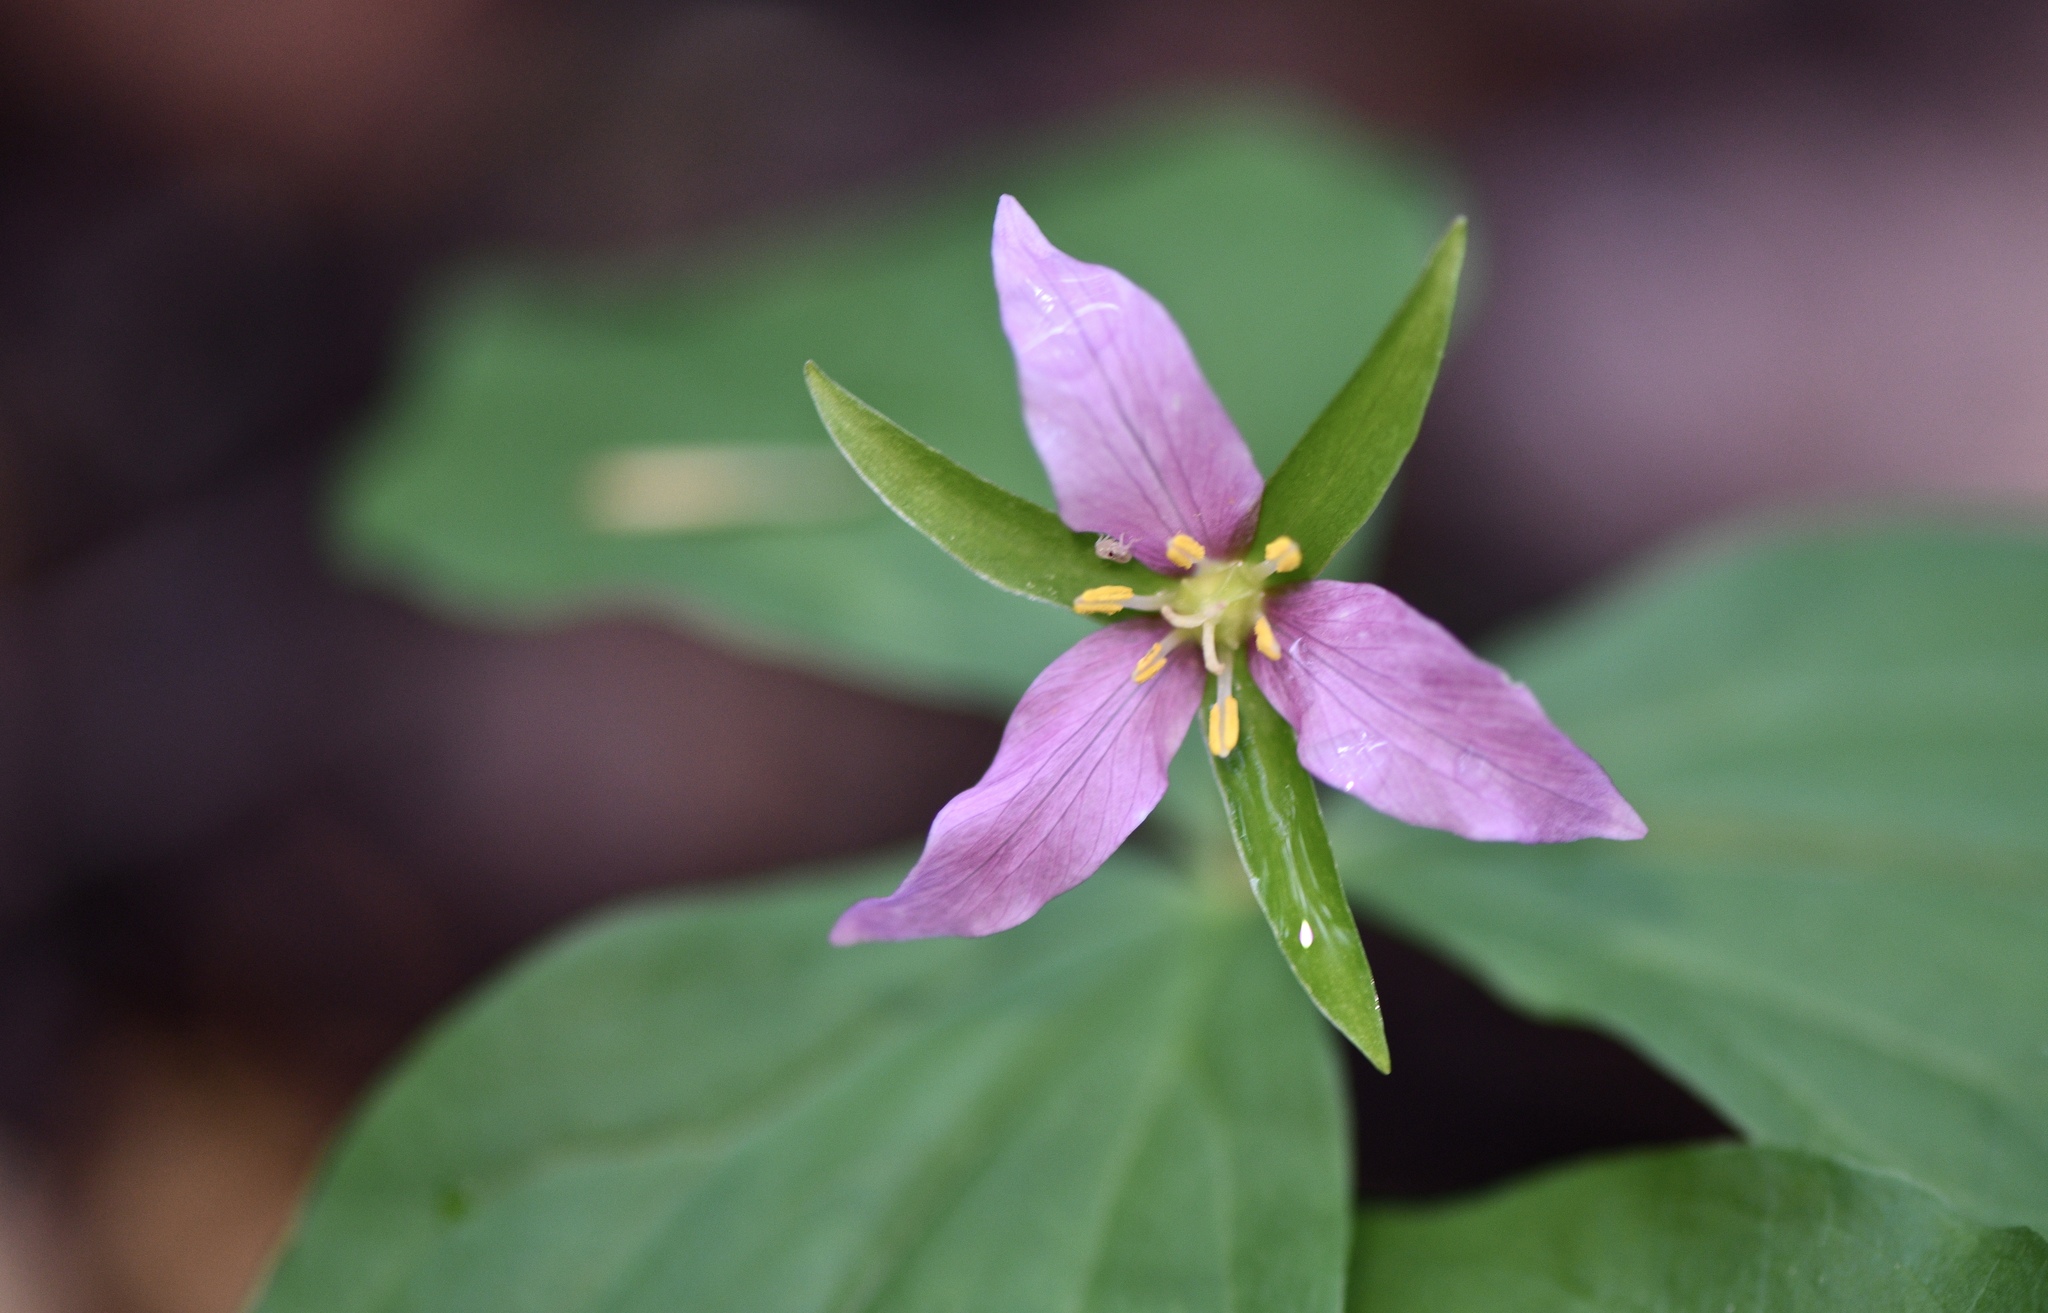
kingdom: Plantae
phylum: Tracheophyta
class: Liliopsida
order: Liliales
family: Melanthiaceae
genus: Trillium
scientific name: Trillium ovatum
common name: Pacific trillium
